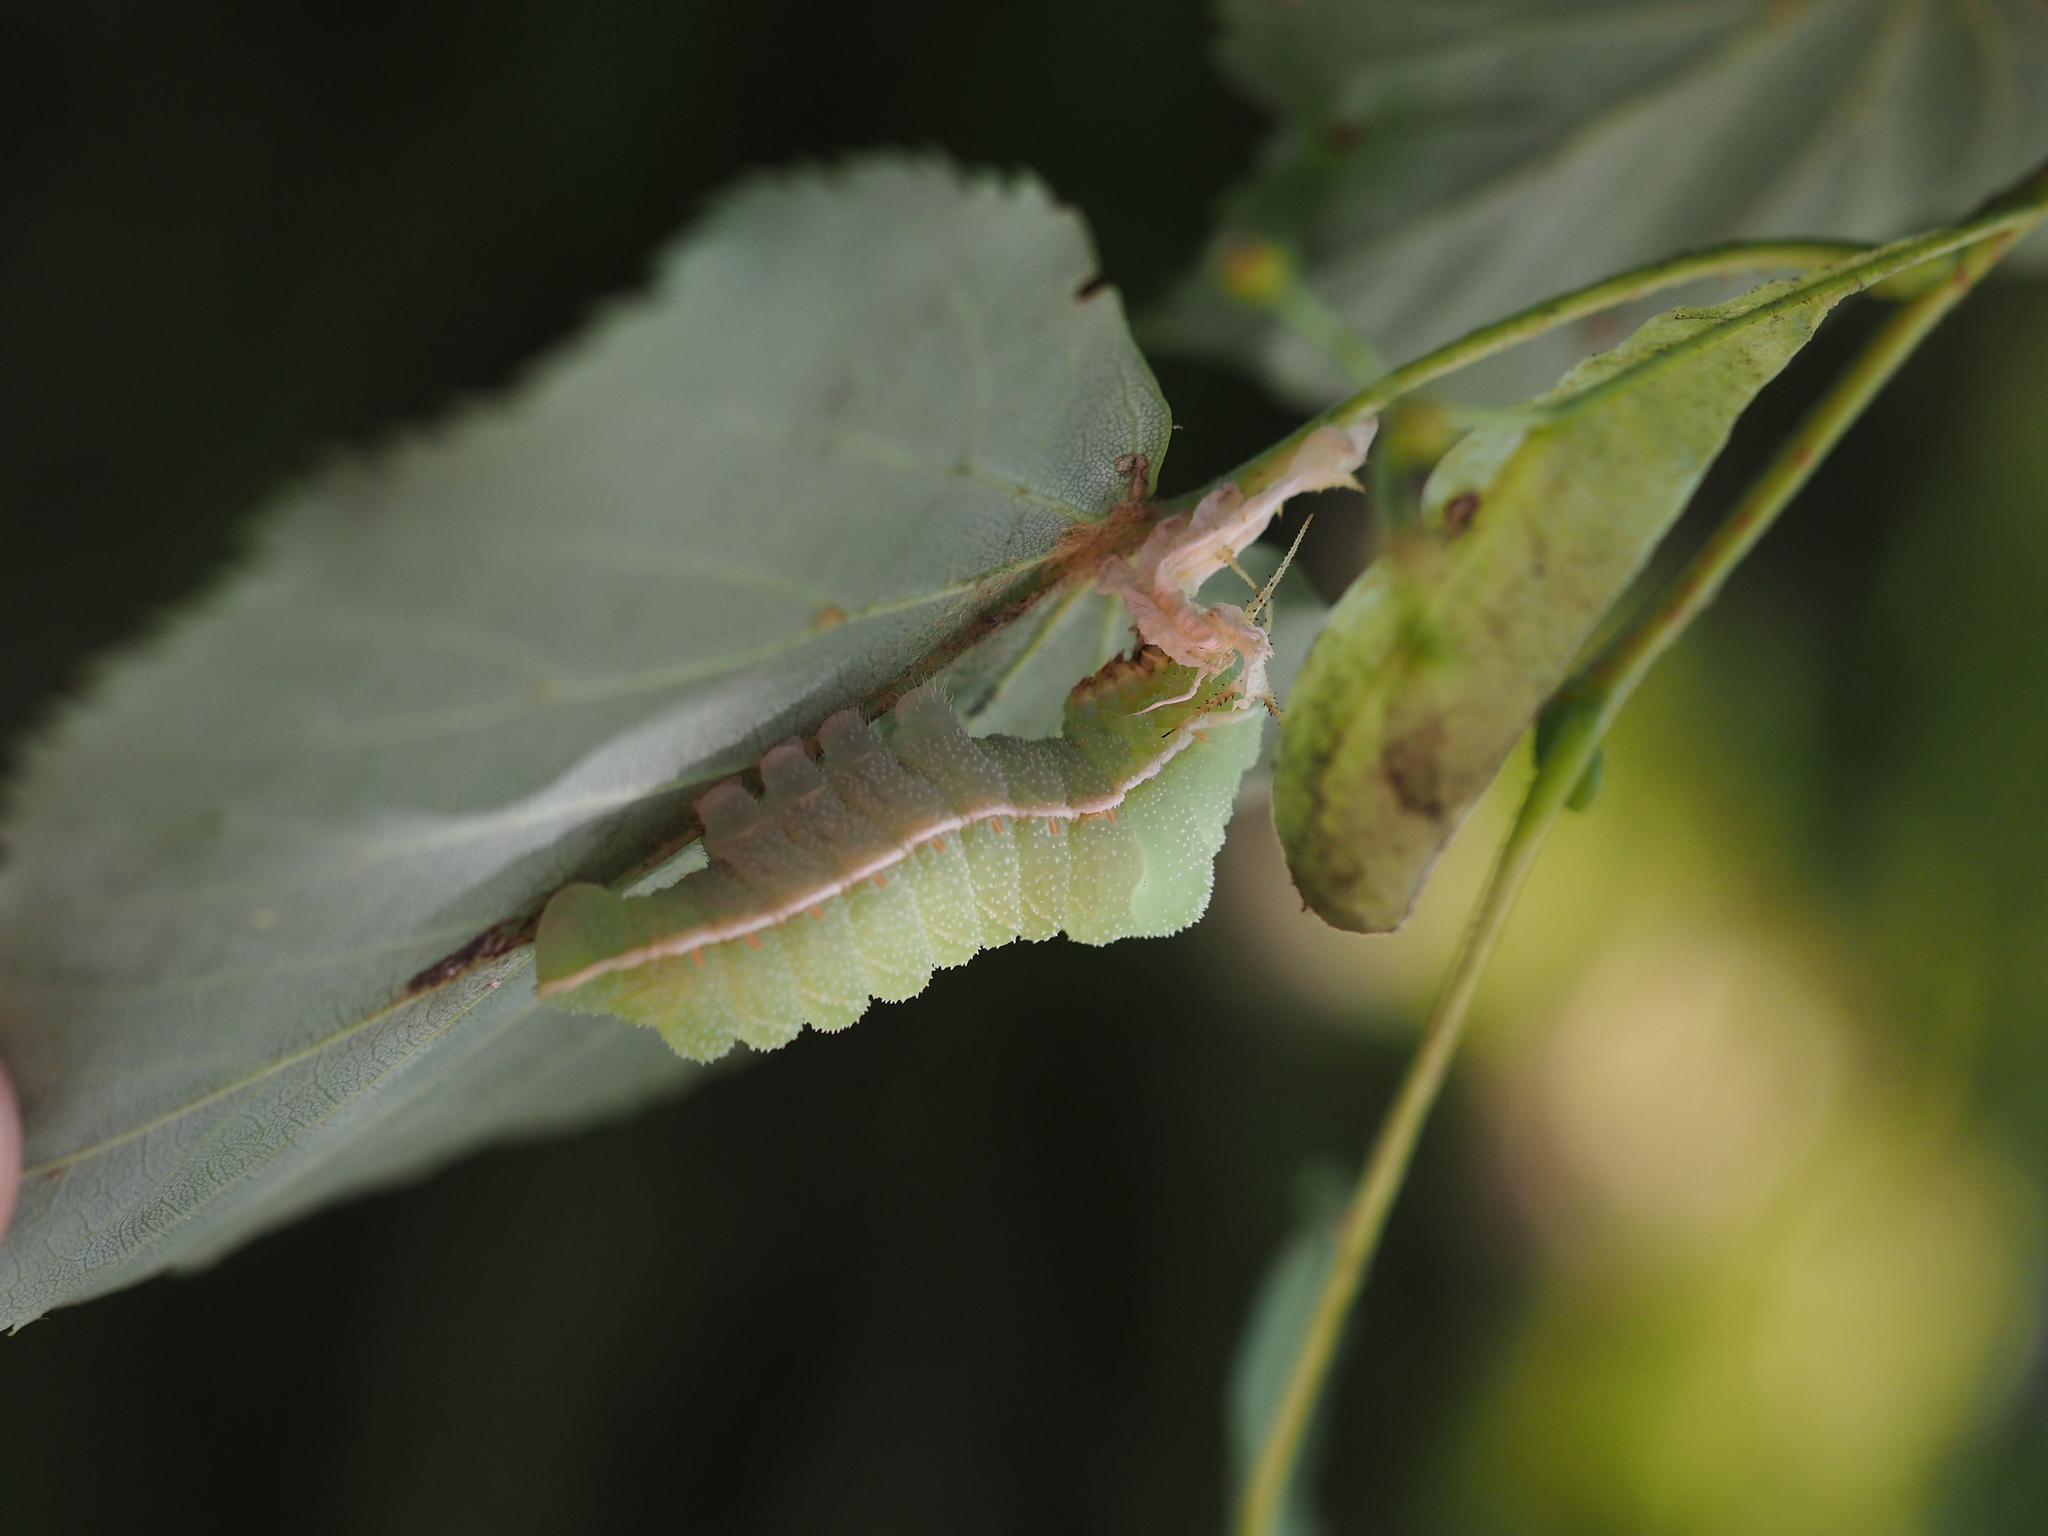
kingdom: Animalia
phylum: Arthropoda
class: Insecta
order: Lepidoptera
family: Saturniidae
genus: Aglia
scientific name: Aglia tau
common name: Tau emperor
